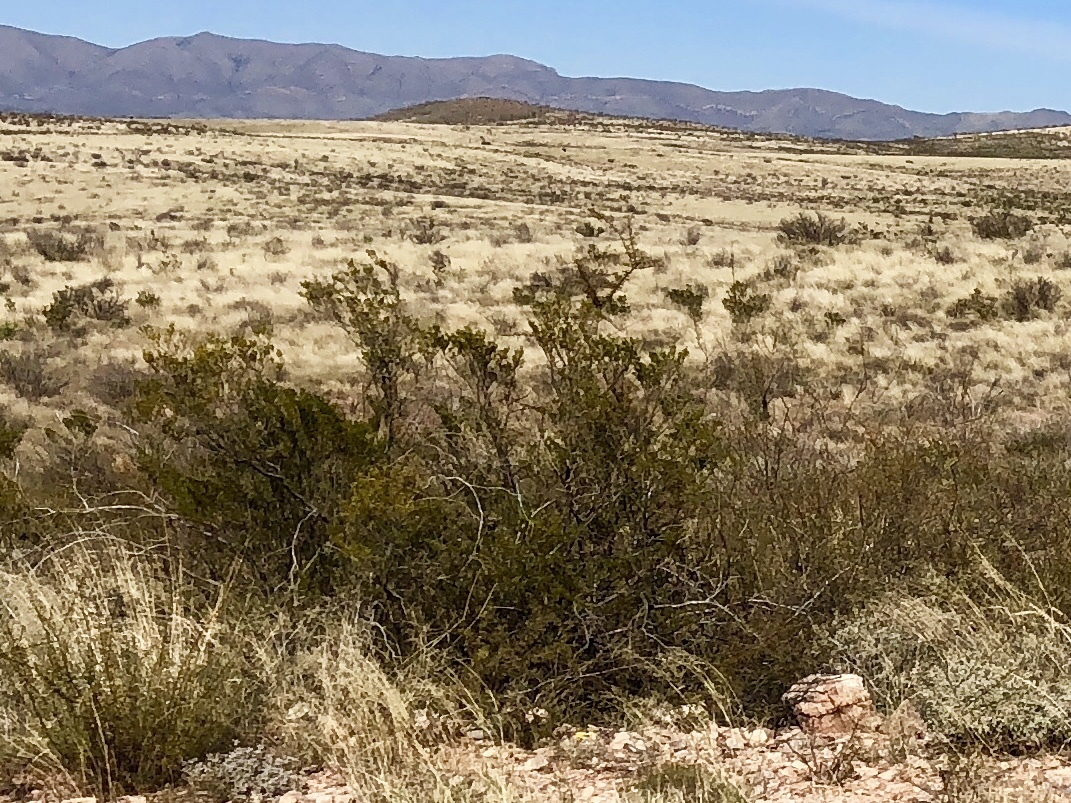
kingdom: Plantae
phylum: Tracheophyta
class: Magnoliopsida
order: Zygophyllales
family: Zygophyllaceae
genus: Larrea
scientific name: Larrea tridentata
